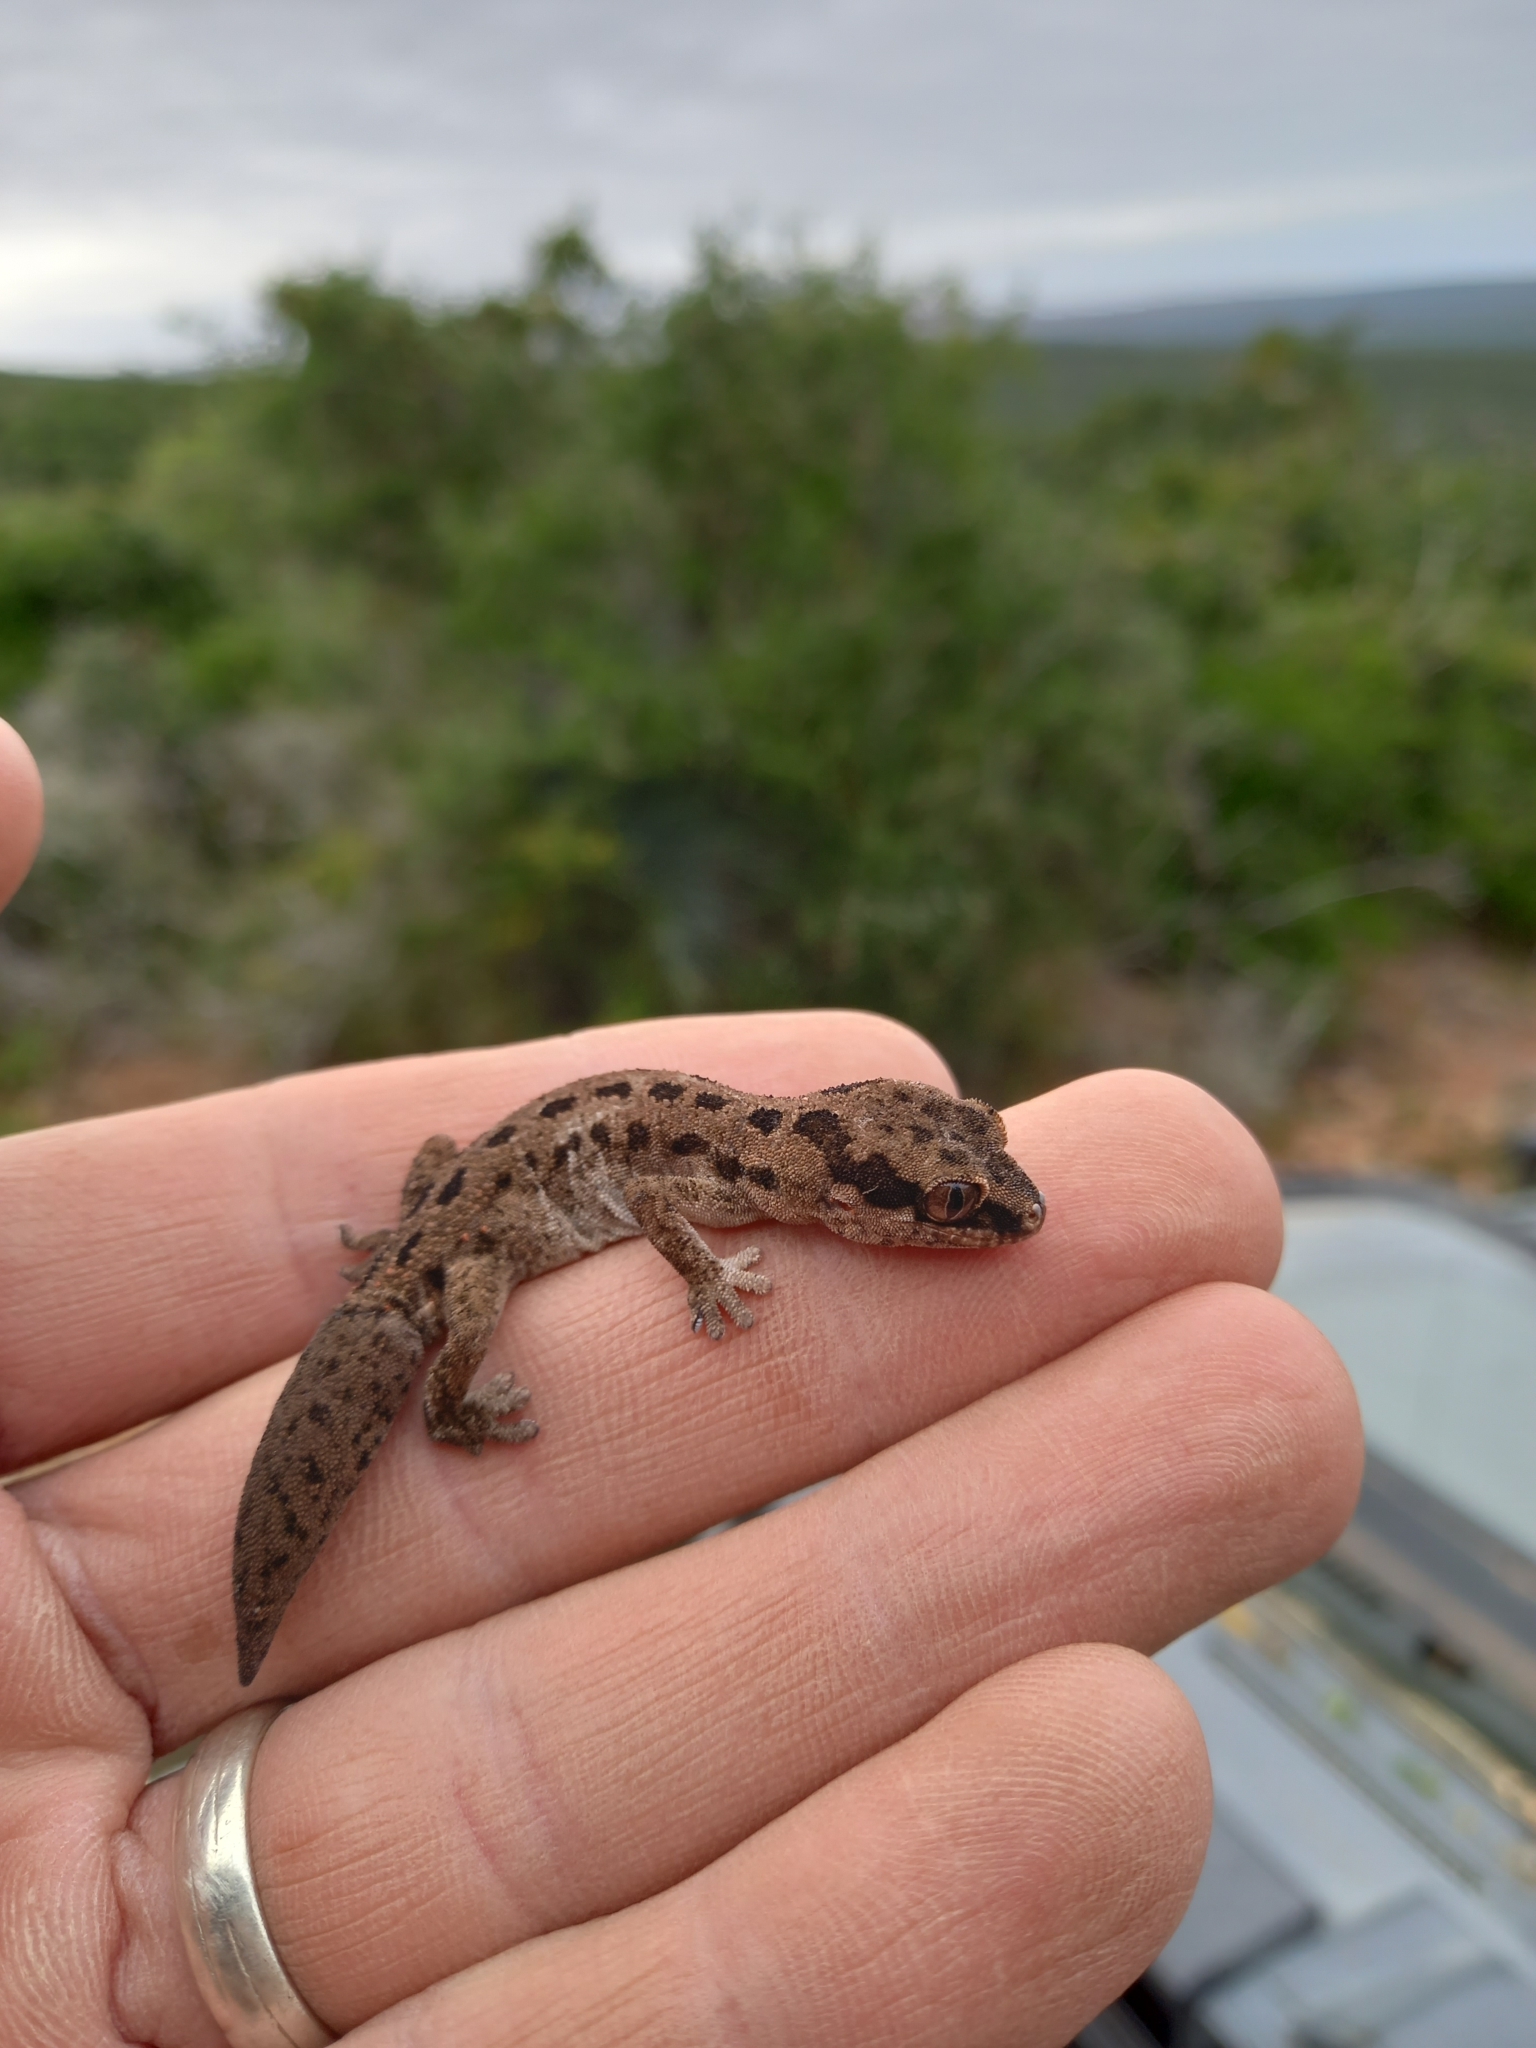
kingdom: Animalia
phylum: Chordata
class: Squamata
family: Gekkonidae
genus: Pachydactylus
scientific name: Pachydactylus maculatus
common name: Spotted thick-toed gecko
